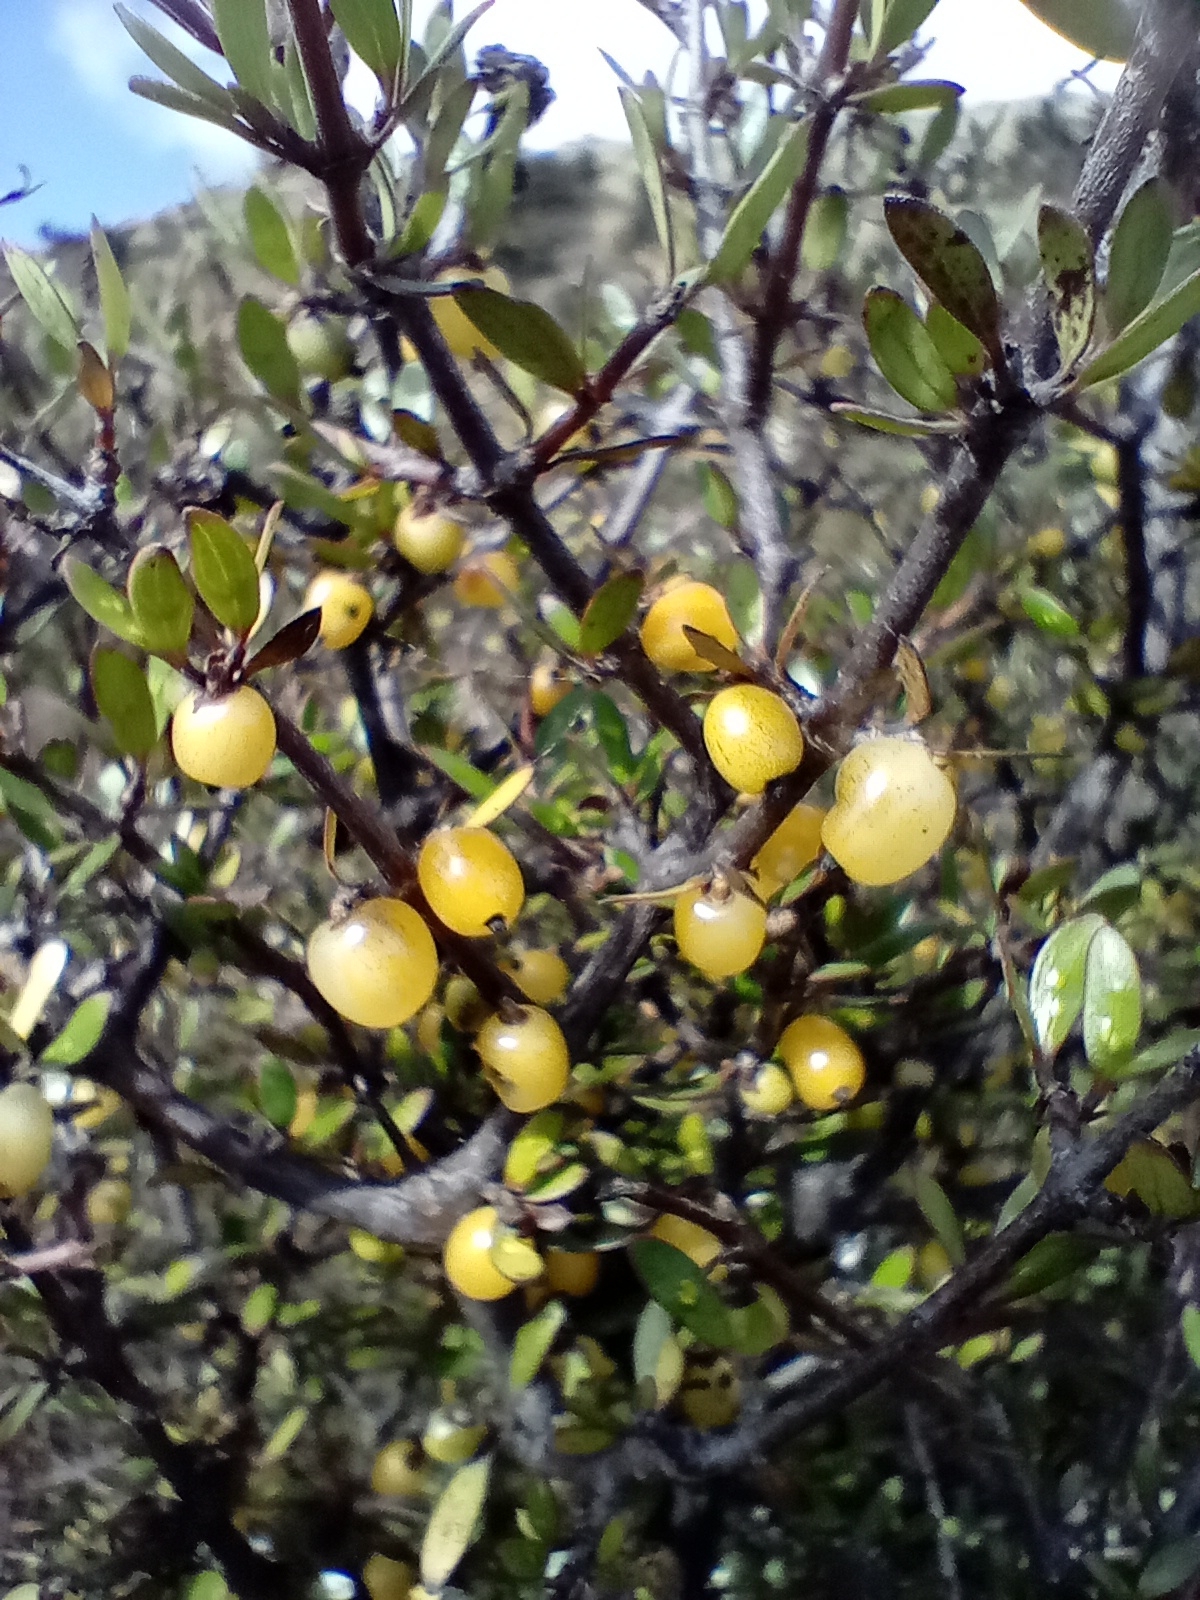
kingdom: Plantae
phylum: Tracheophyta
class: Magnoliopsida
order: Gentianales
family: Rubiaceae
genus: Coprosma
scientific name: Coprosma propinqua
